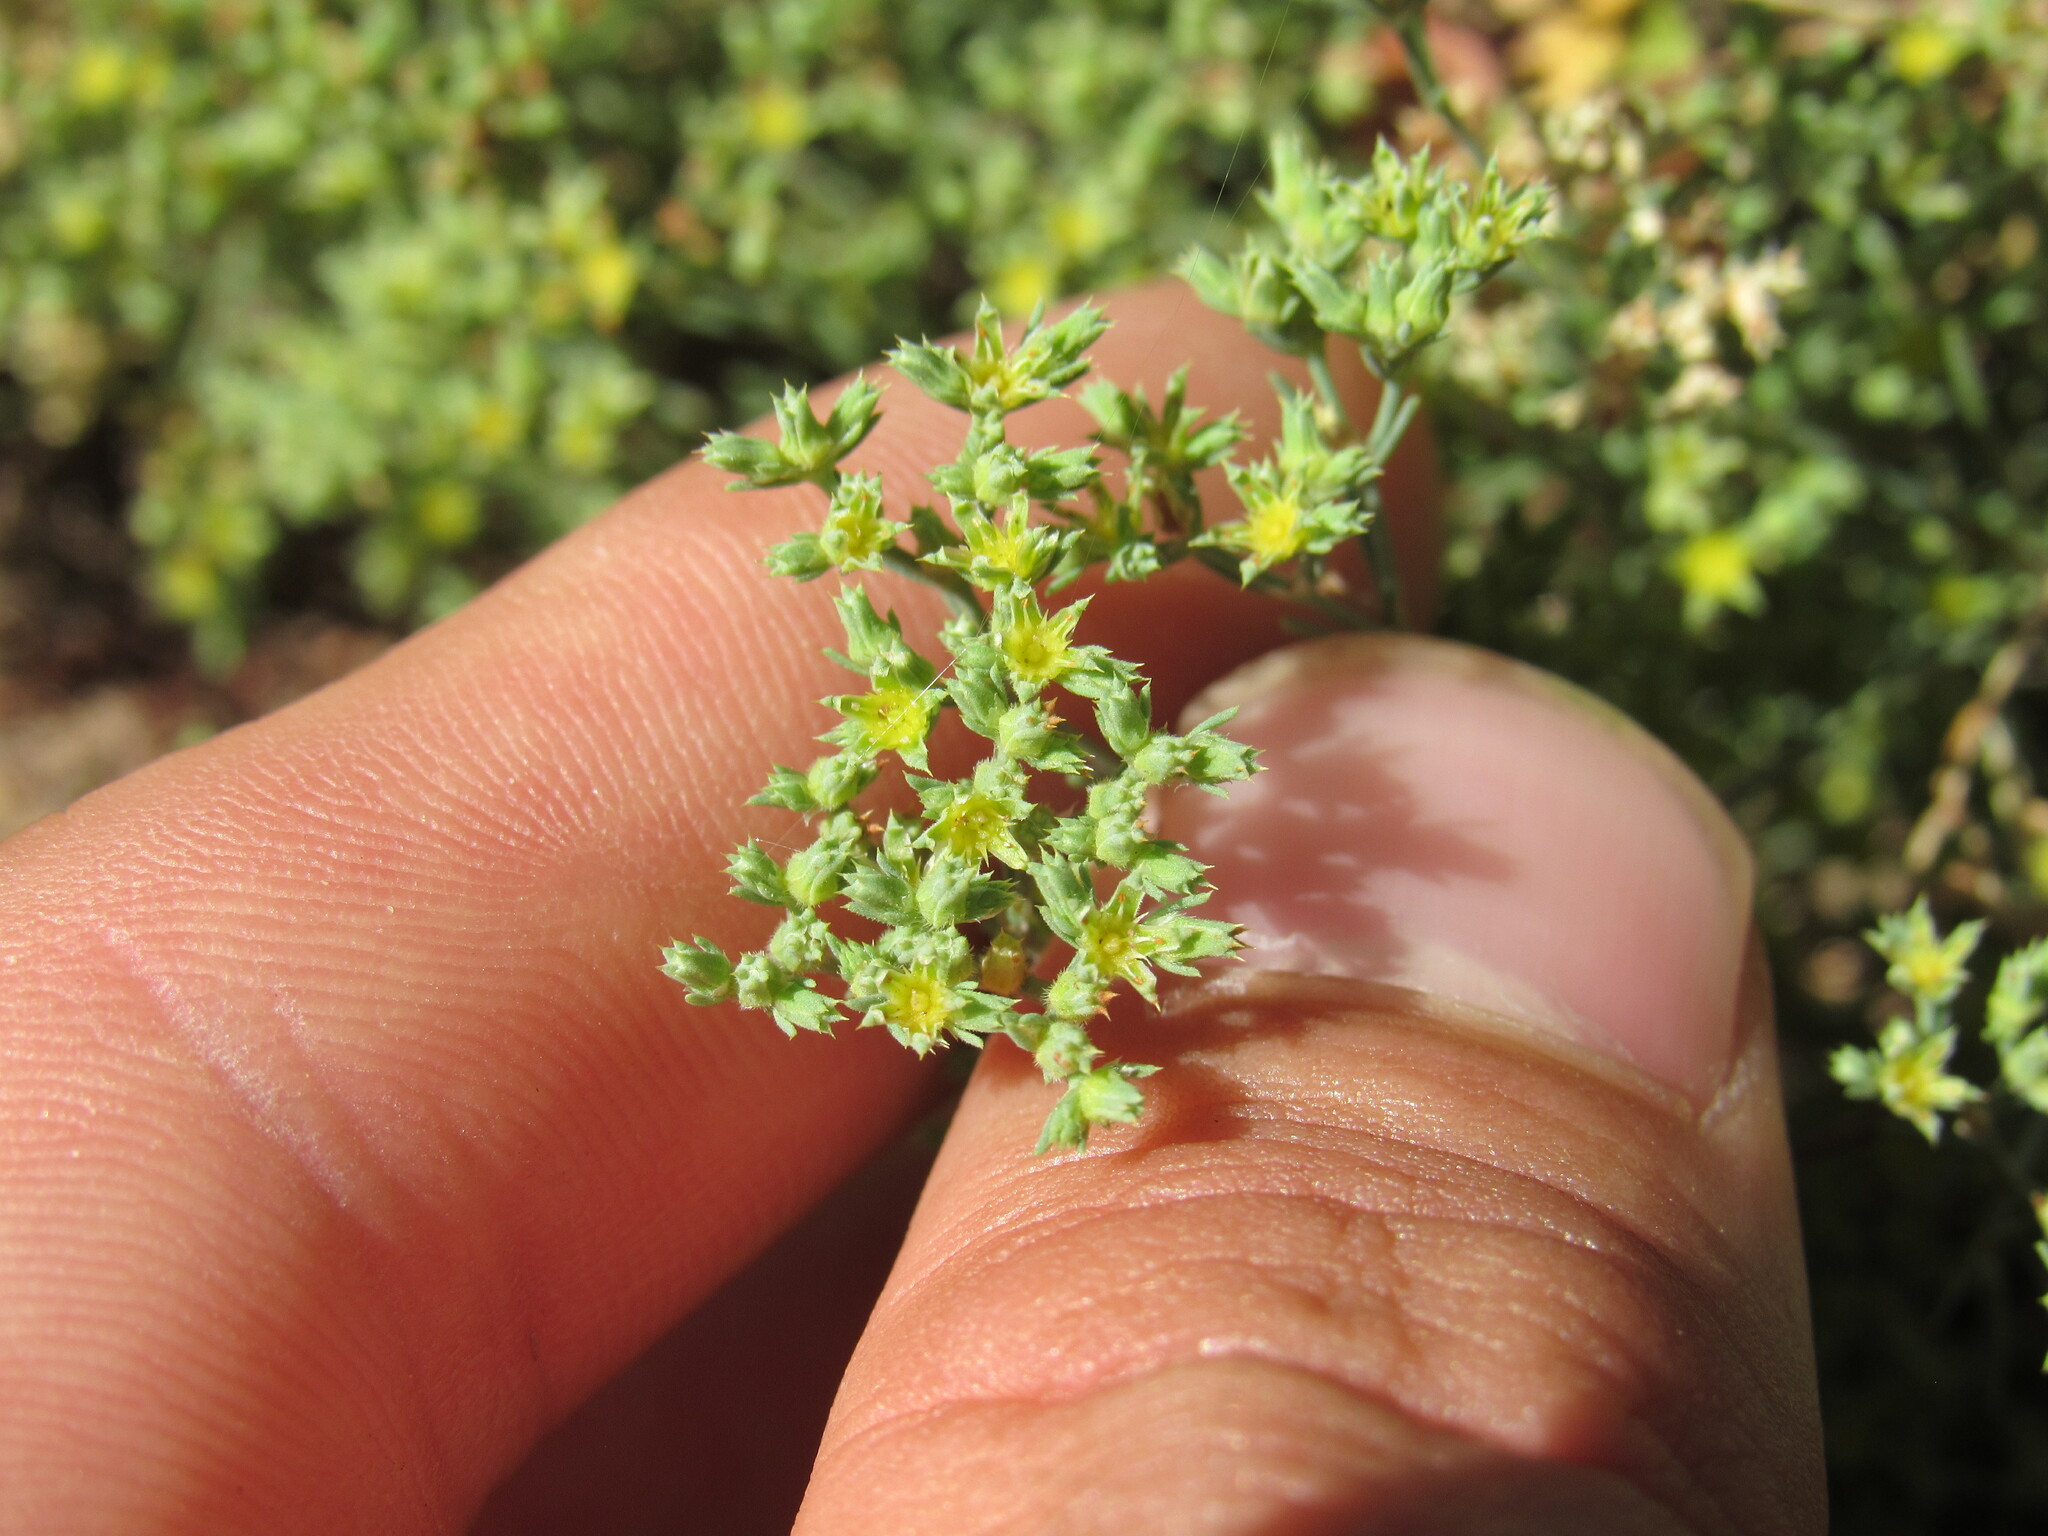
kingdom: Plantae
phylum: Tracheophyta
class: Magnoliopsida
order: Caryophyllales
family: Caryophyllaceae
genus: Paronychia
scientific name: Paronychia jamesii
